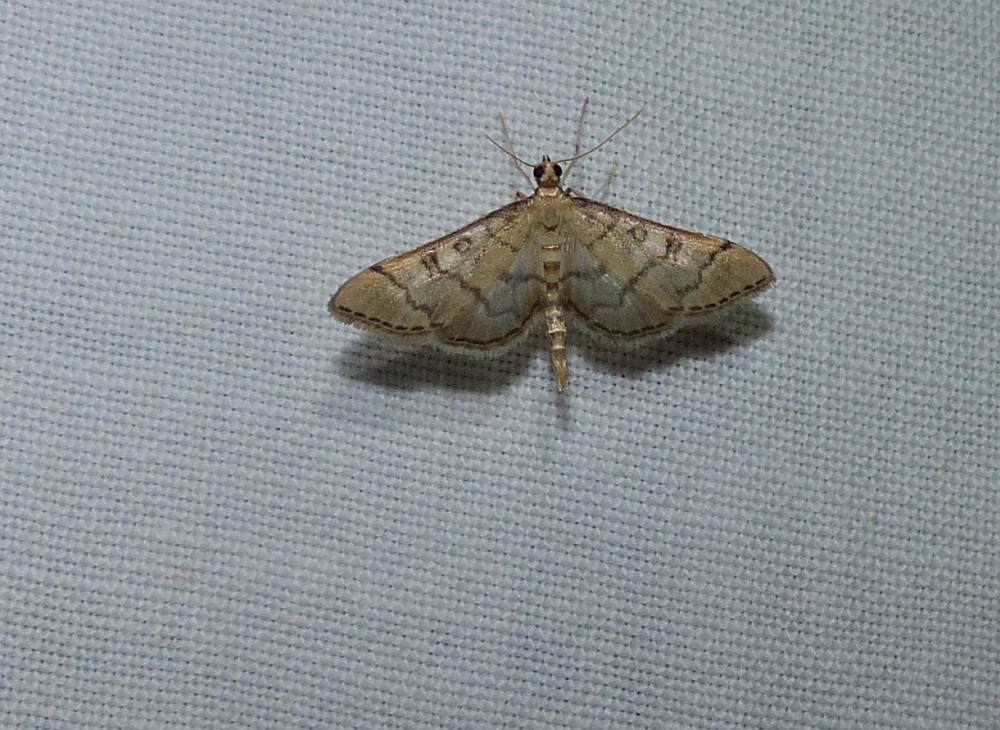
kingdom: Animalia
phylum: Arthropoda
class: Insecta
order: Lepidoptera
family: Crambidae
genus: Lamprosema
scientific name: Lamprosema Blepharomastix ranalis
